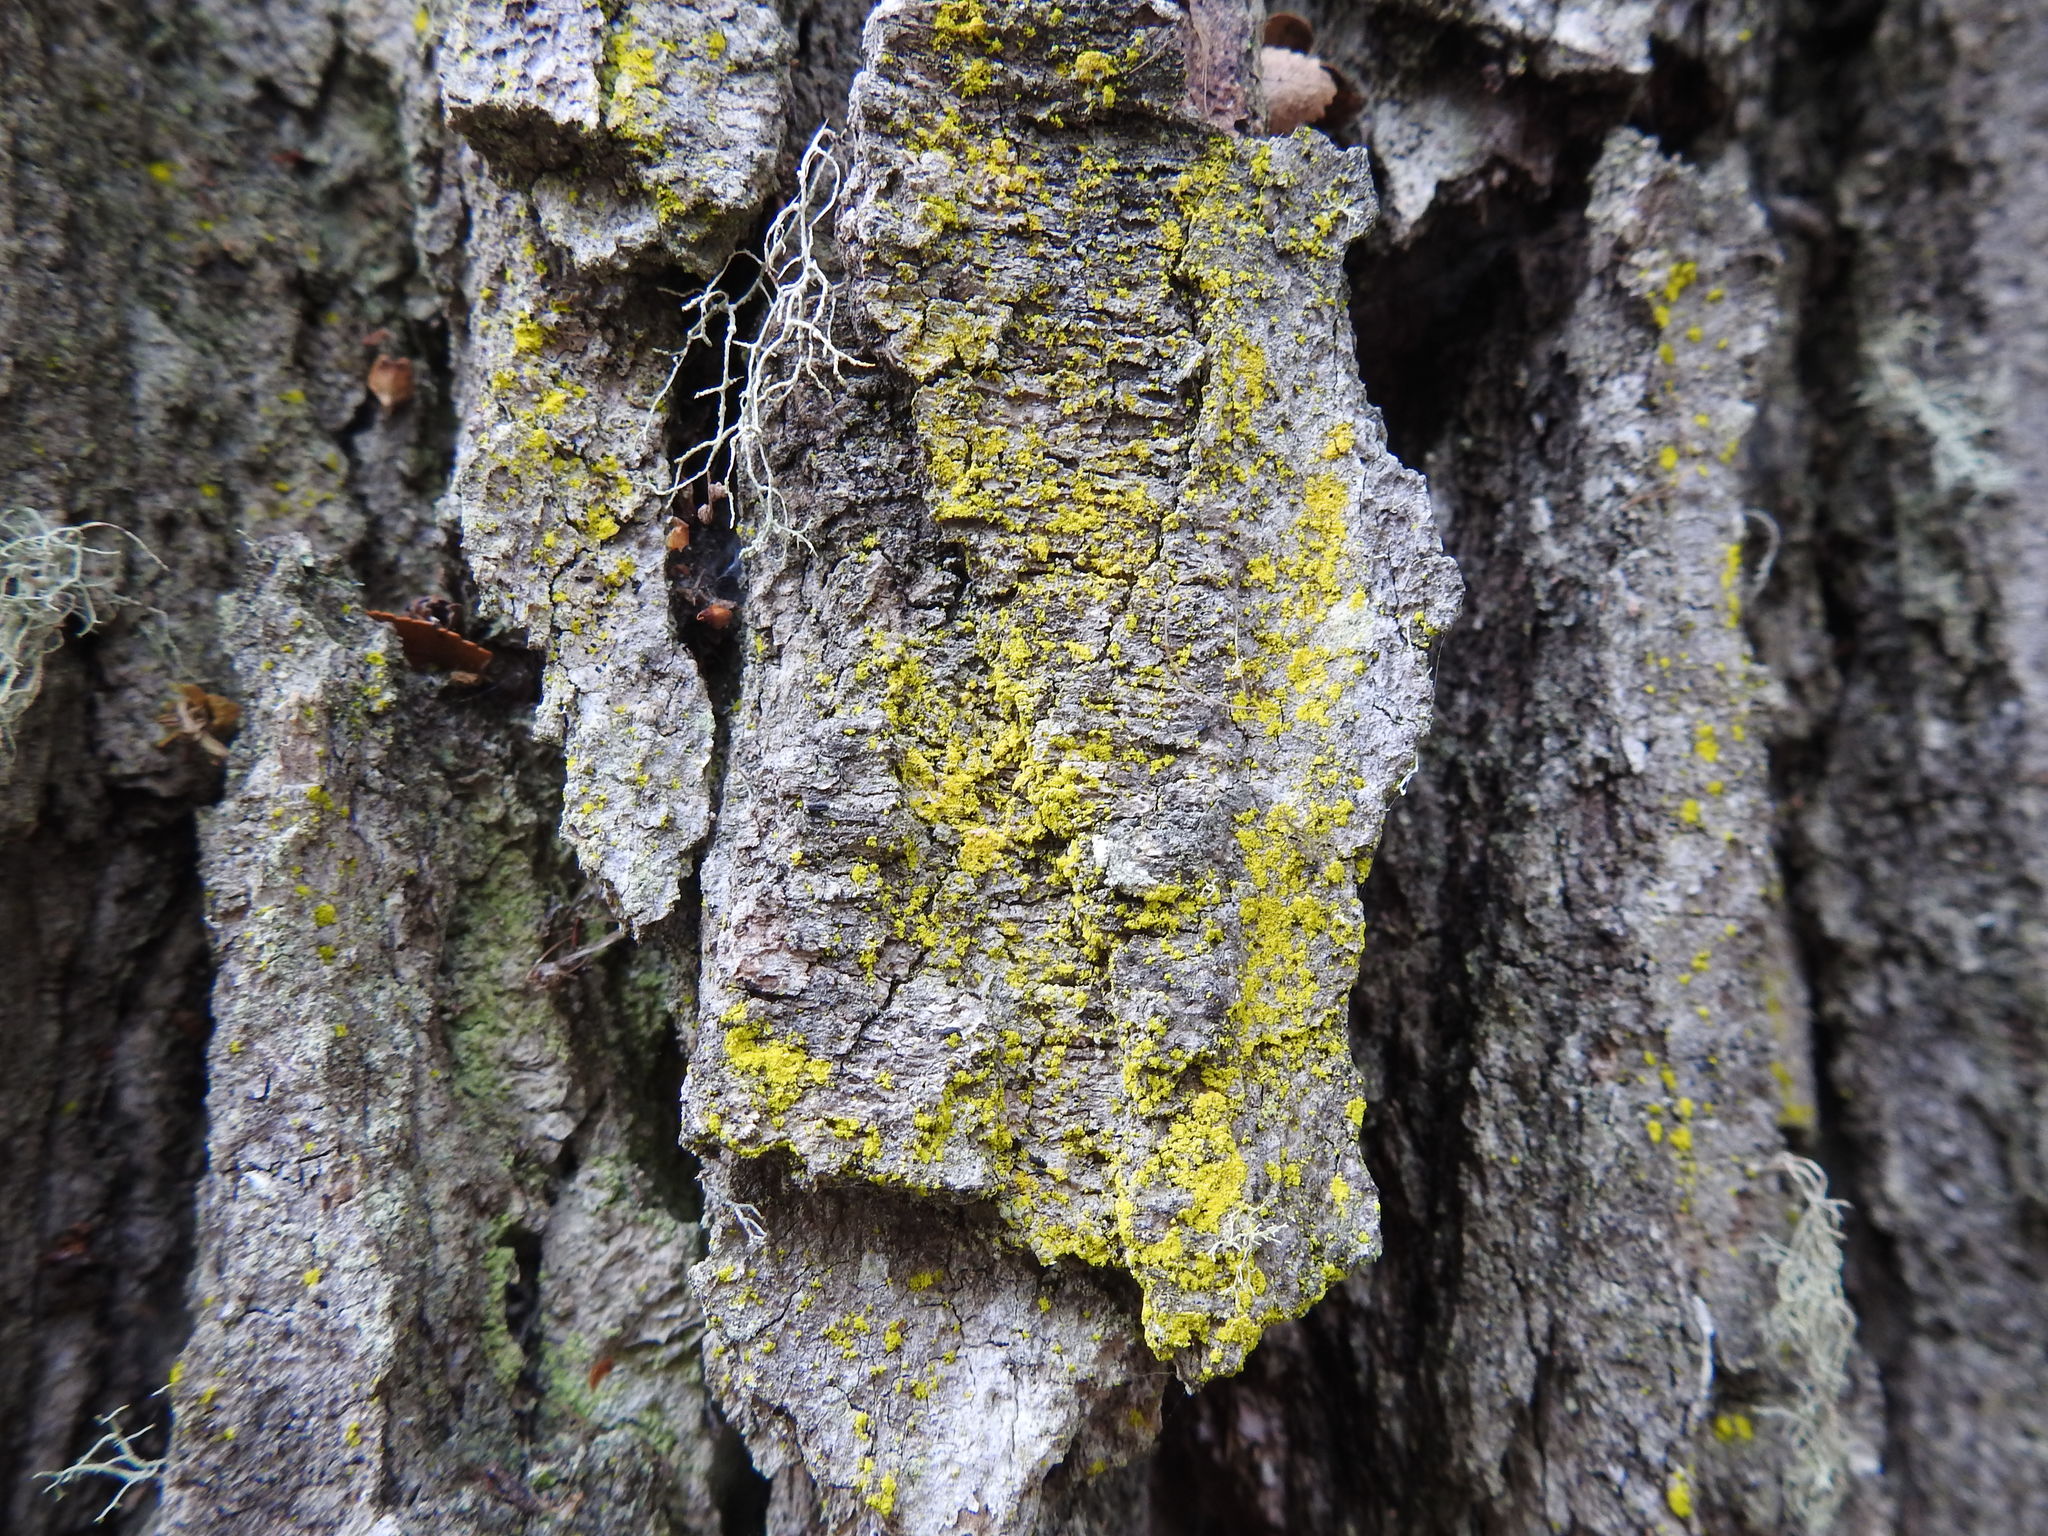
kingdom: Fungi
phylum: Ascomycota
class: Arthoniomycetes
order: Arthoniales
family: Chrysotrichaceae
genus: Chrysothrix
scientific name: Chrysothrix candelaris
